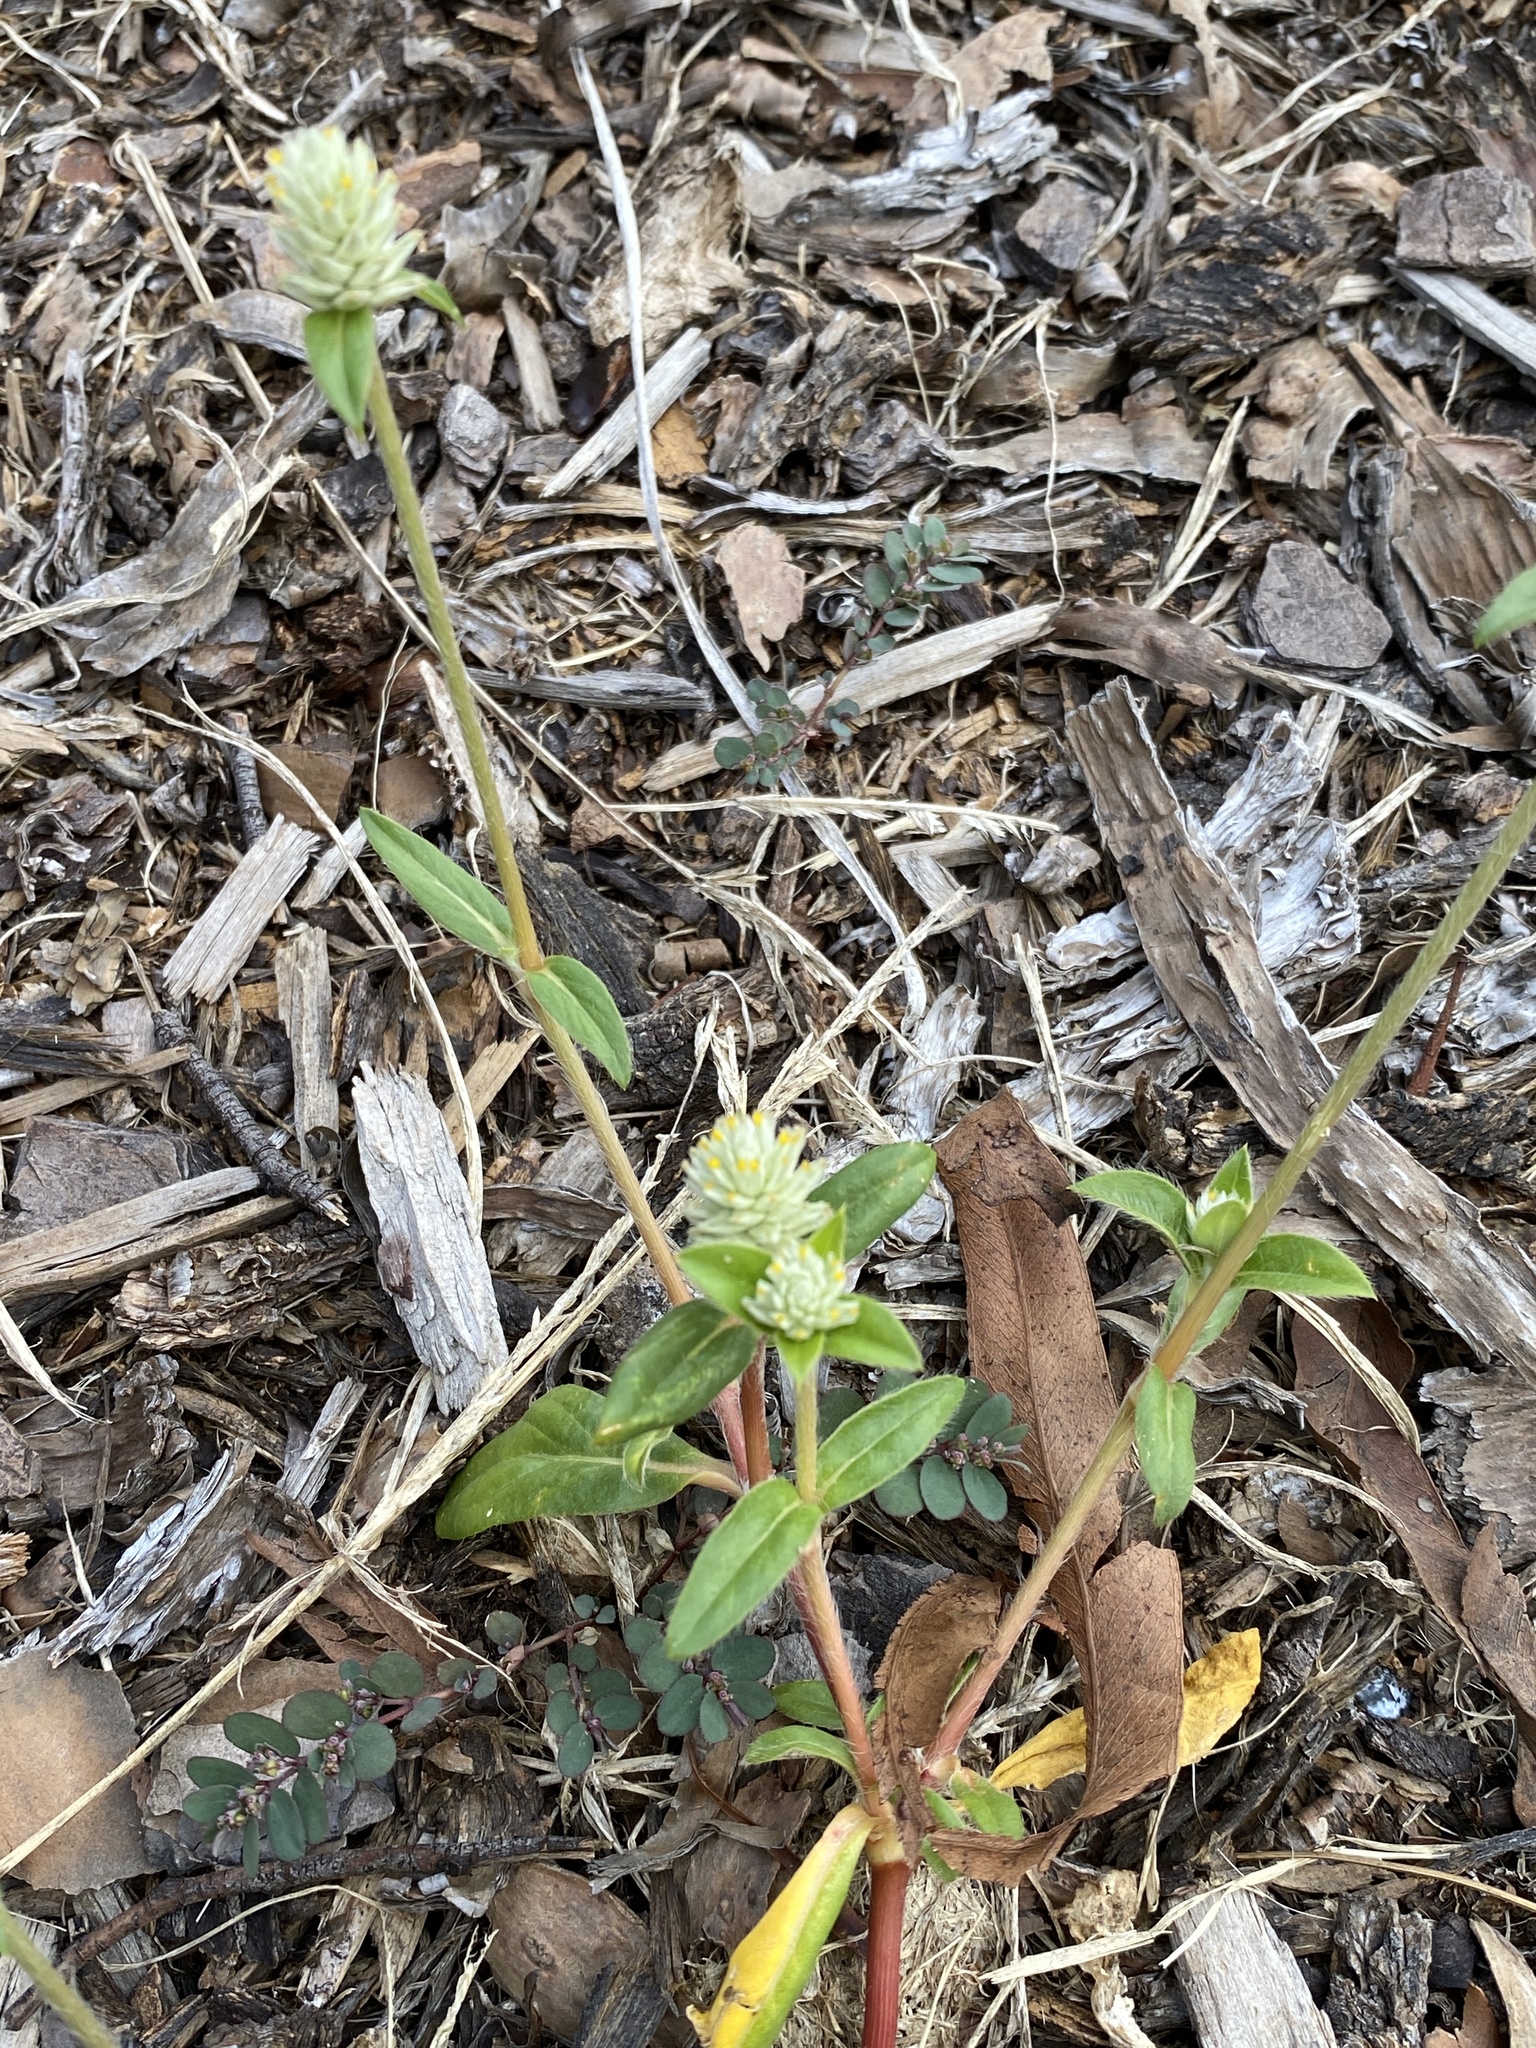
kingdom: Plantae
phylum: Tracheophyta
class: Magnoliopsida
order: Caryophyllales
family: Amaranthaceae
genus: Gomphrena
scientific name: Gomphrena celosioides
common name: Gomphrena-weed
